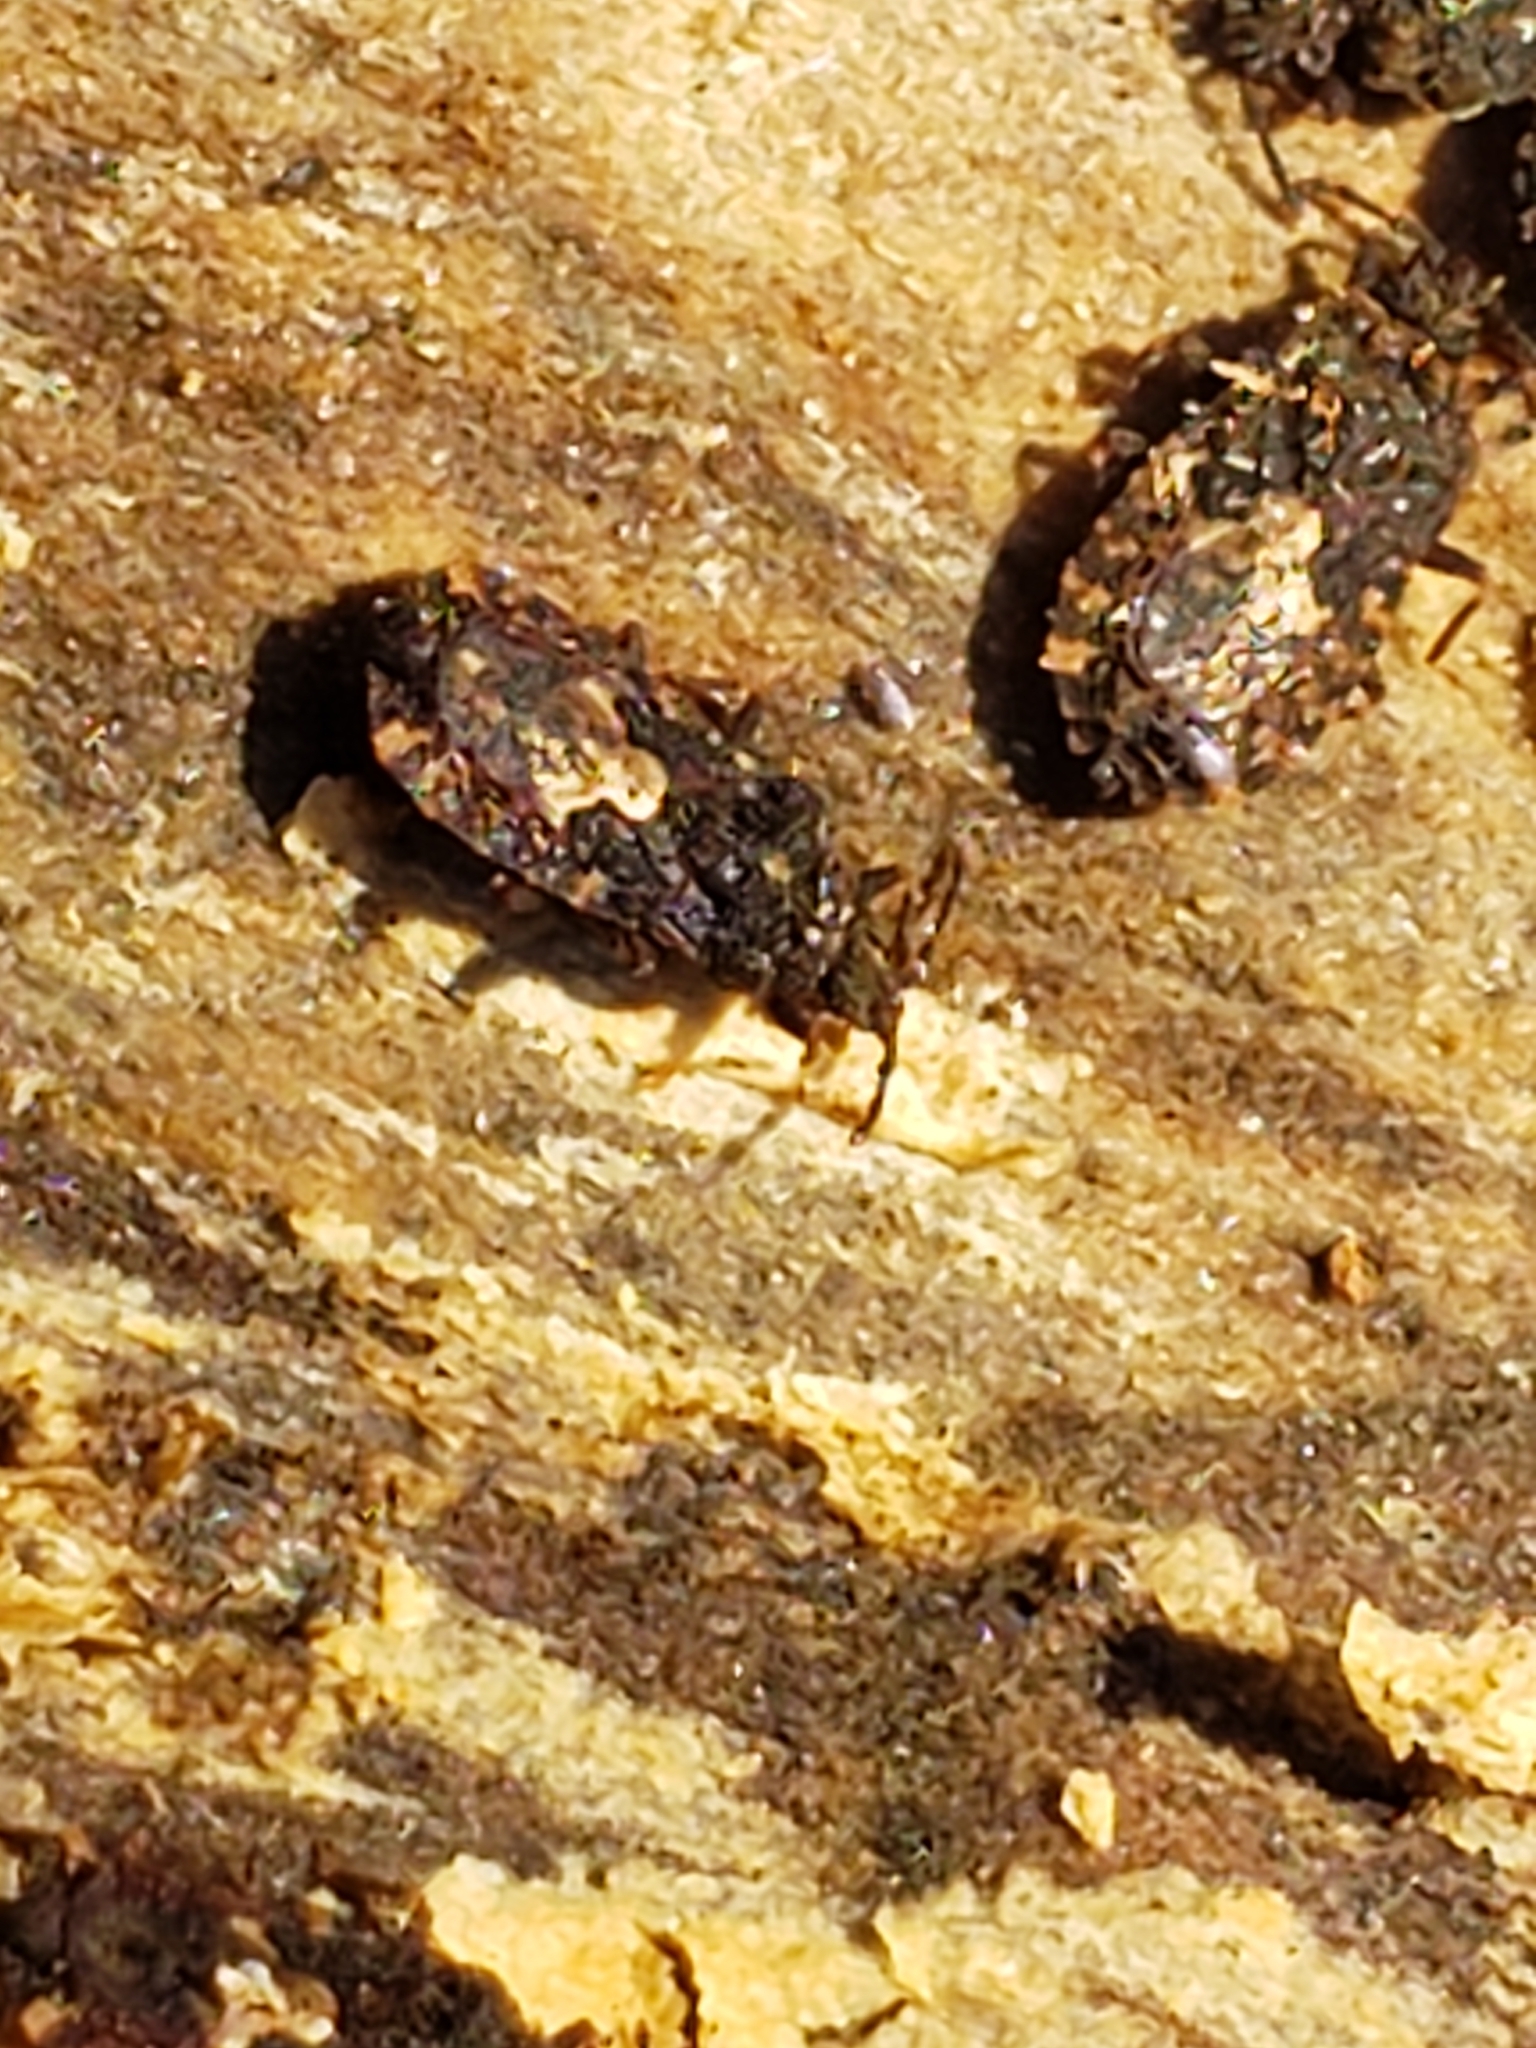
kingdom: Animalia
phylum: Arthropoda
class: Insecta
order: Hemiptera
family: Aradidae
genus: Mezira
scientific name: Mezira
